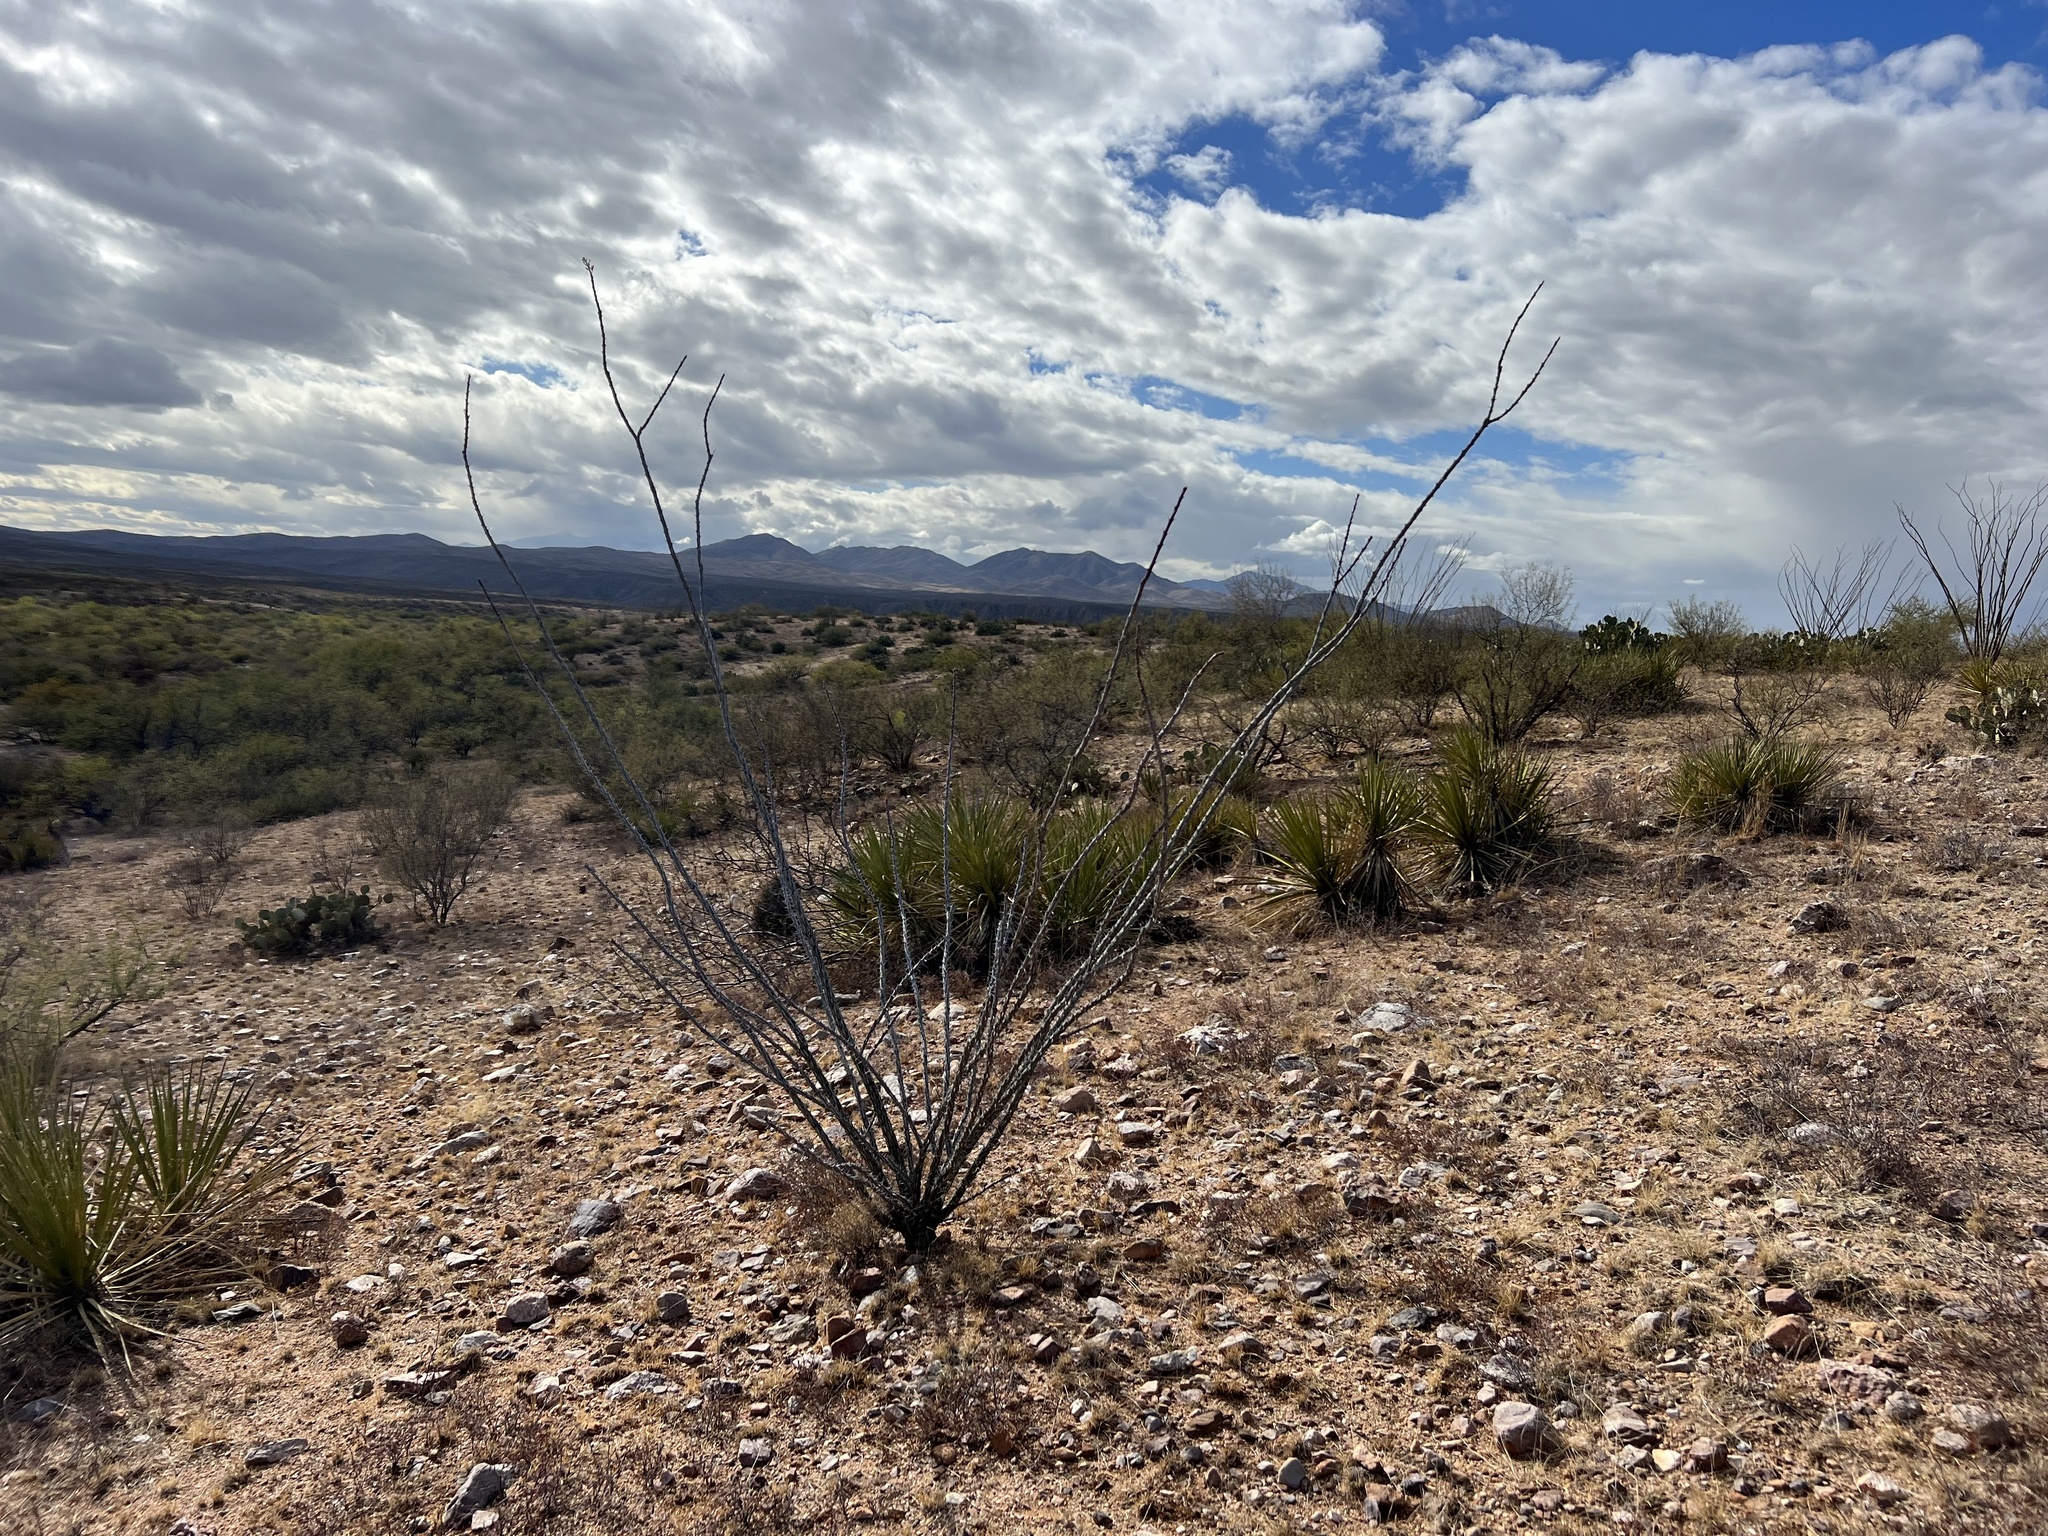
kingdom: Plantae
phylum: Tracheophyta
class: Magnoliopsida
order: Ericales
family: Fouquieriaceae
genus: Fouquieria
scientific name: Fouquieria splendens
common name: Vine-cactus
